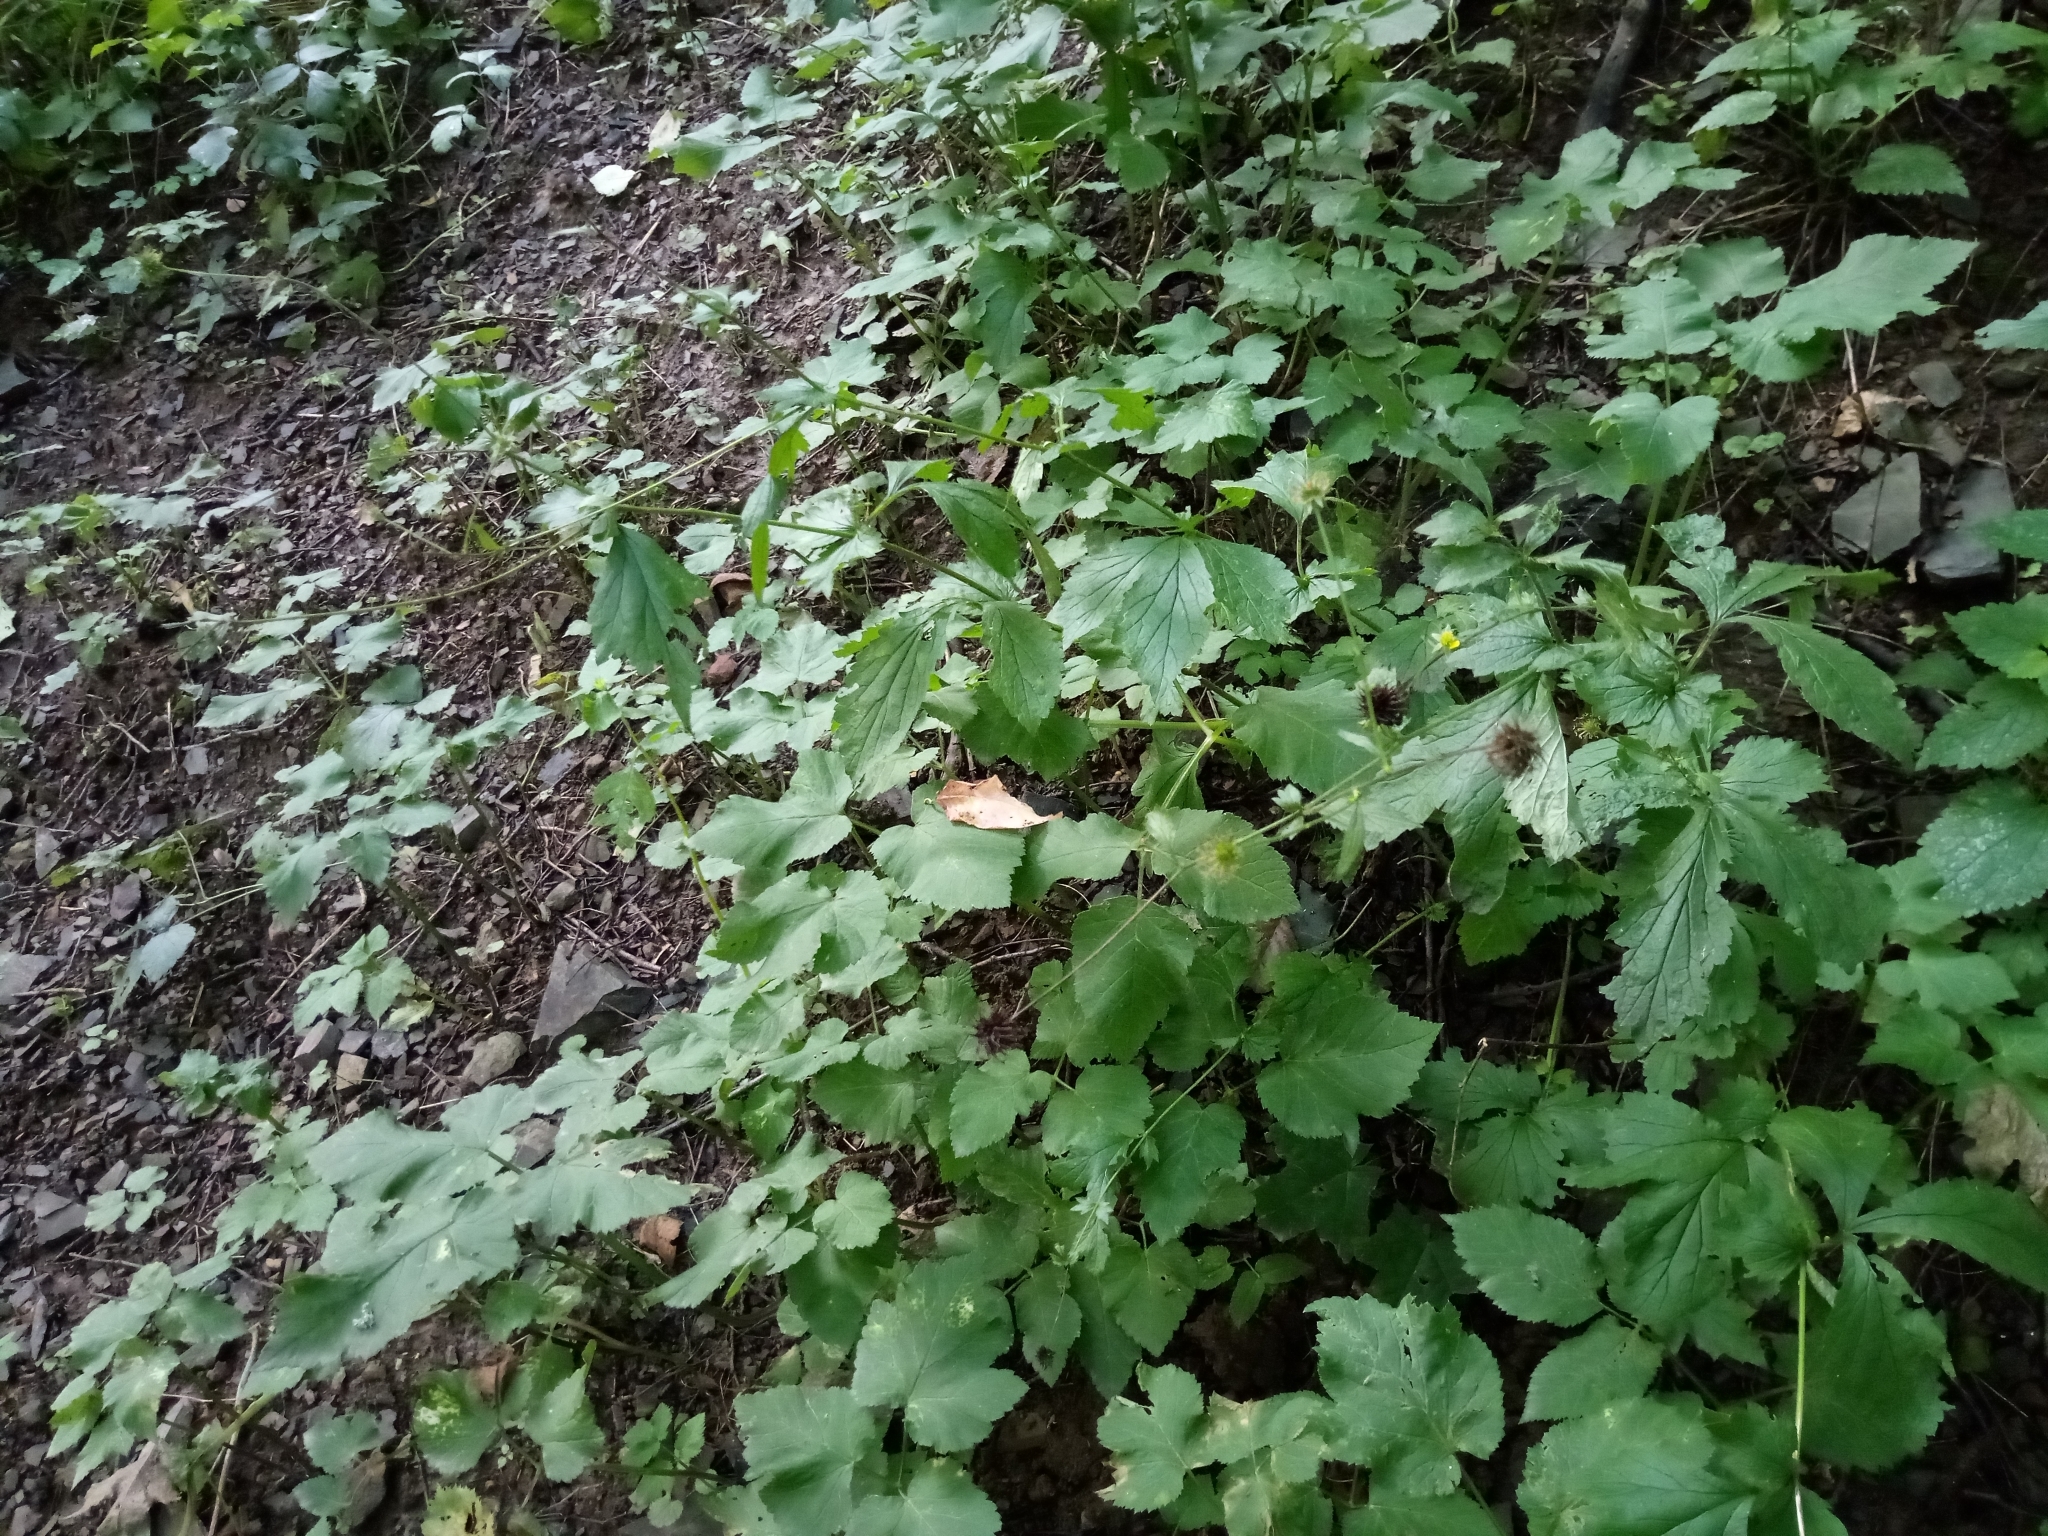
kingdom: Plantae
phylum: Tracheophyta
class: Magnoliopsida
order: Rosales
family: Rosaceae
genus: Geum
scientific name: Geum urbanum
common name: Wood avens
